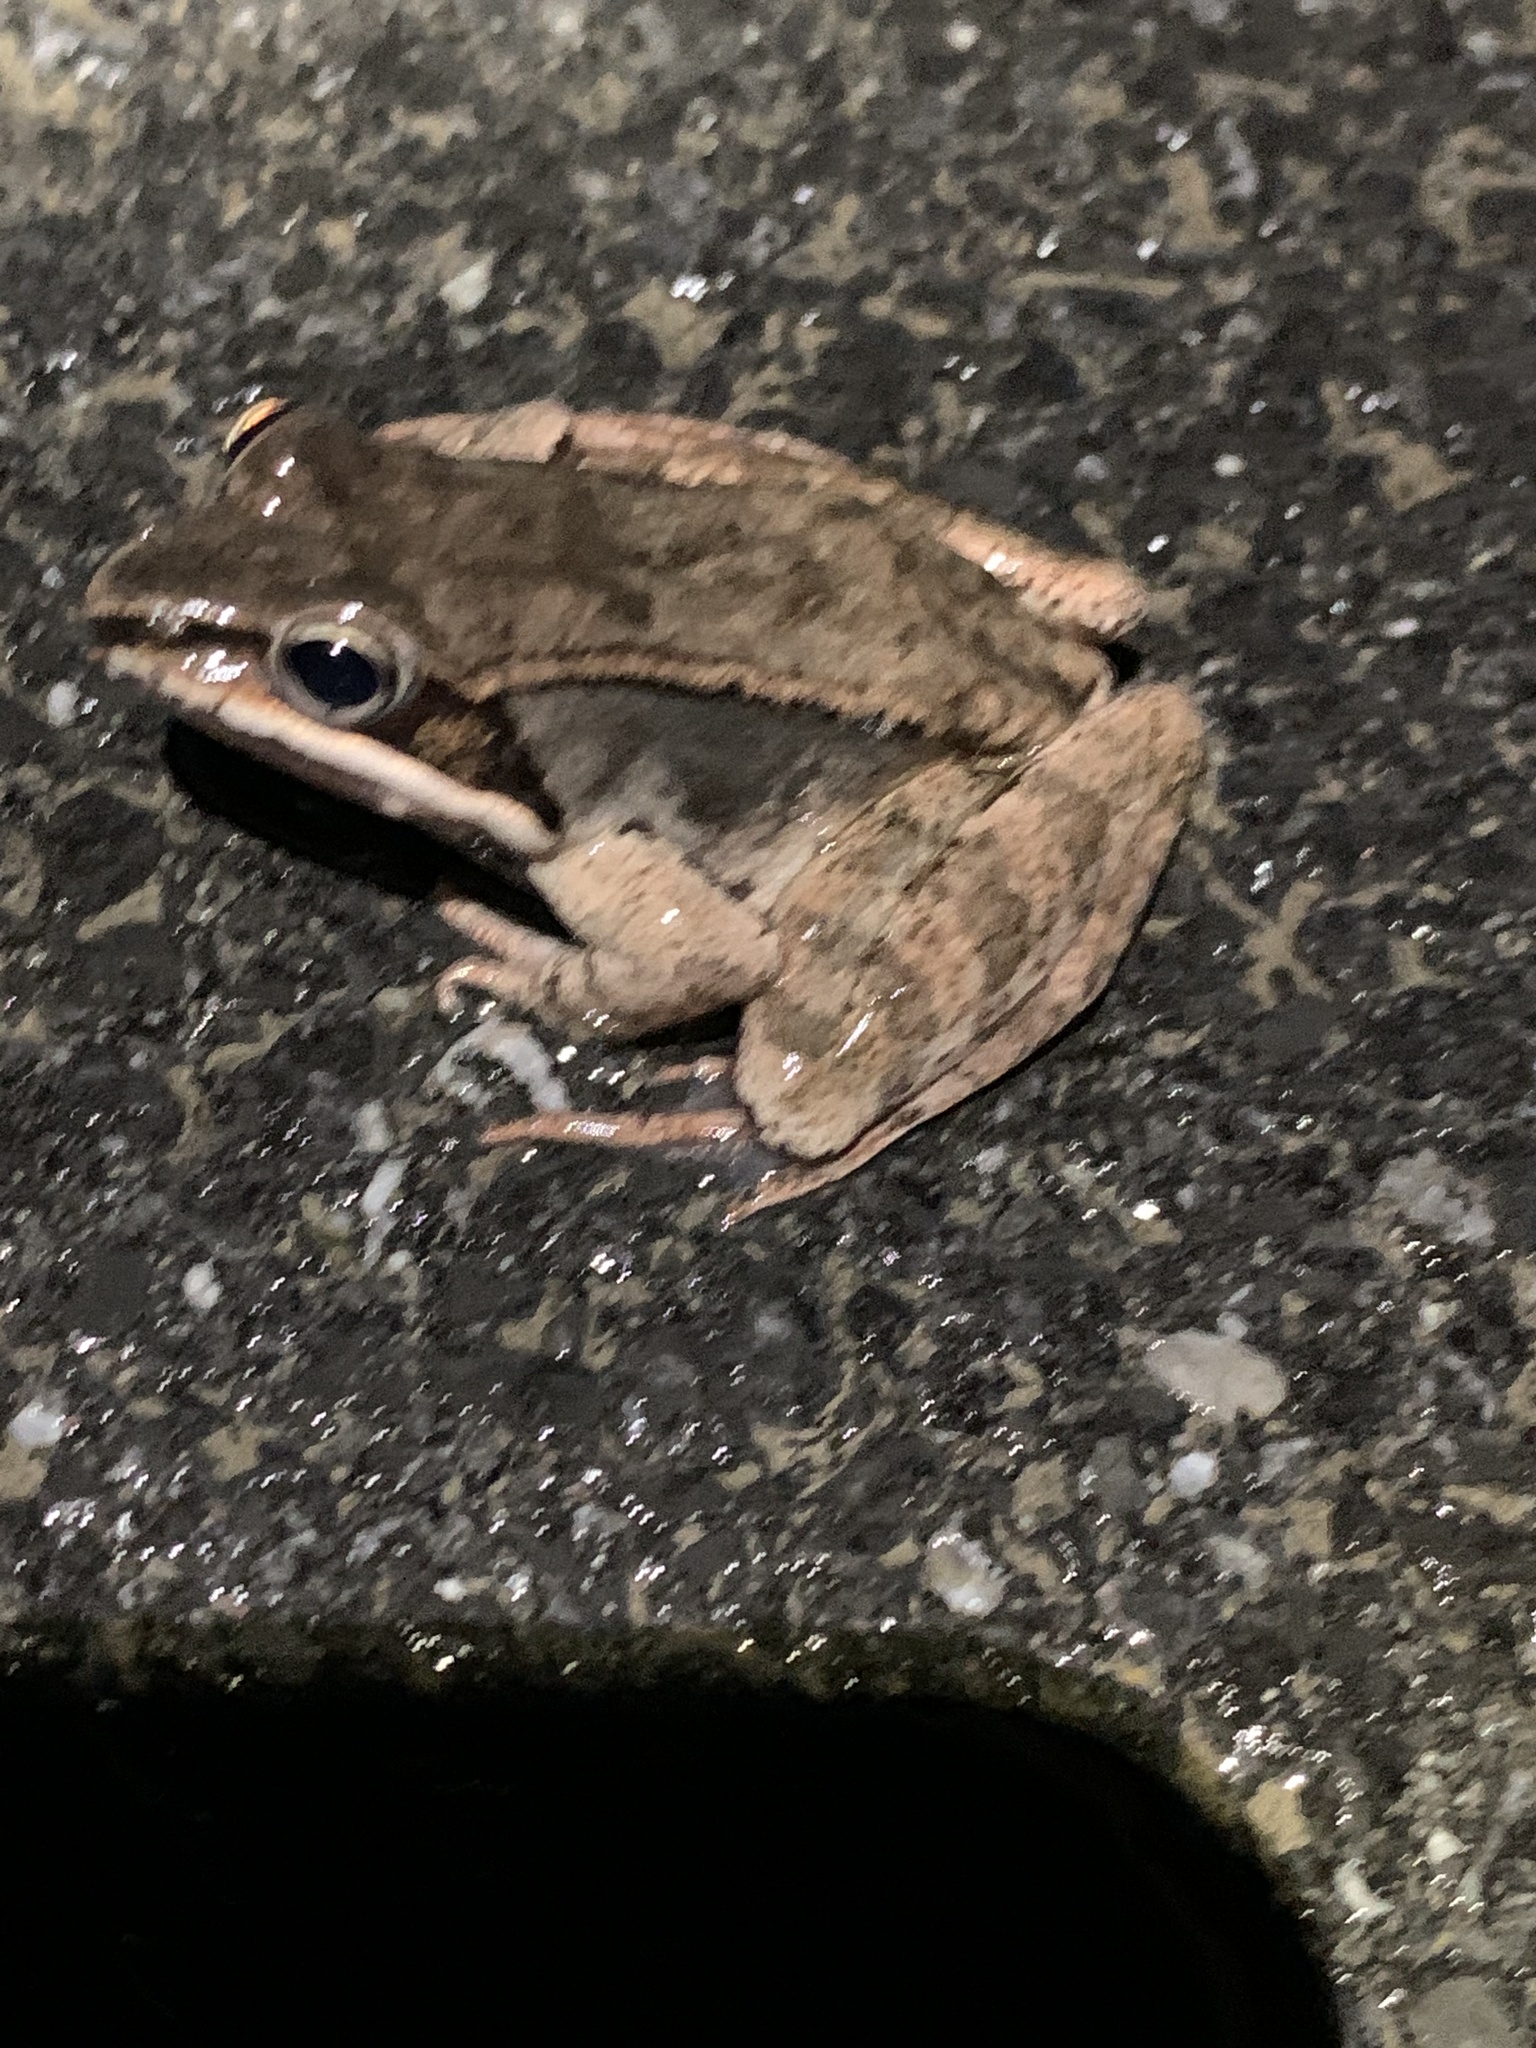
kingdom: Animalia
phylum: Chordata
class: Amphibia
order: Anura
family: Ranidae
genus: Lithobates
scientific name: Lithobates sylvaticus
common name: Wood frog
